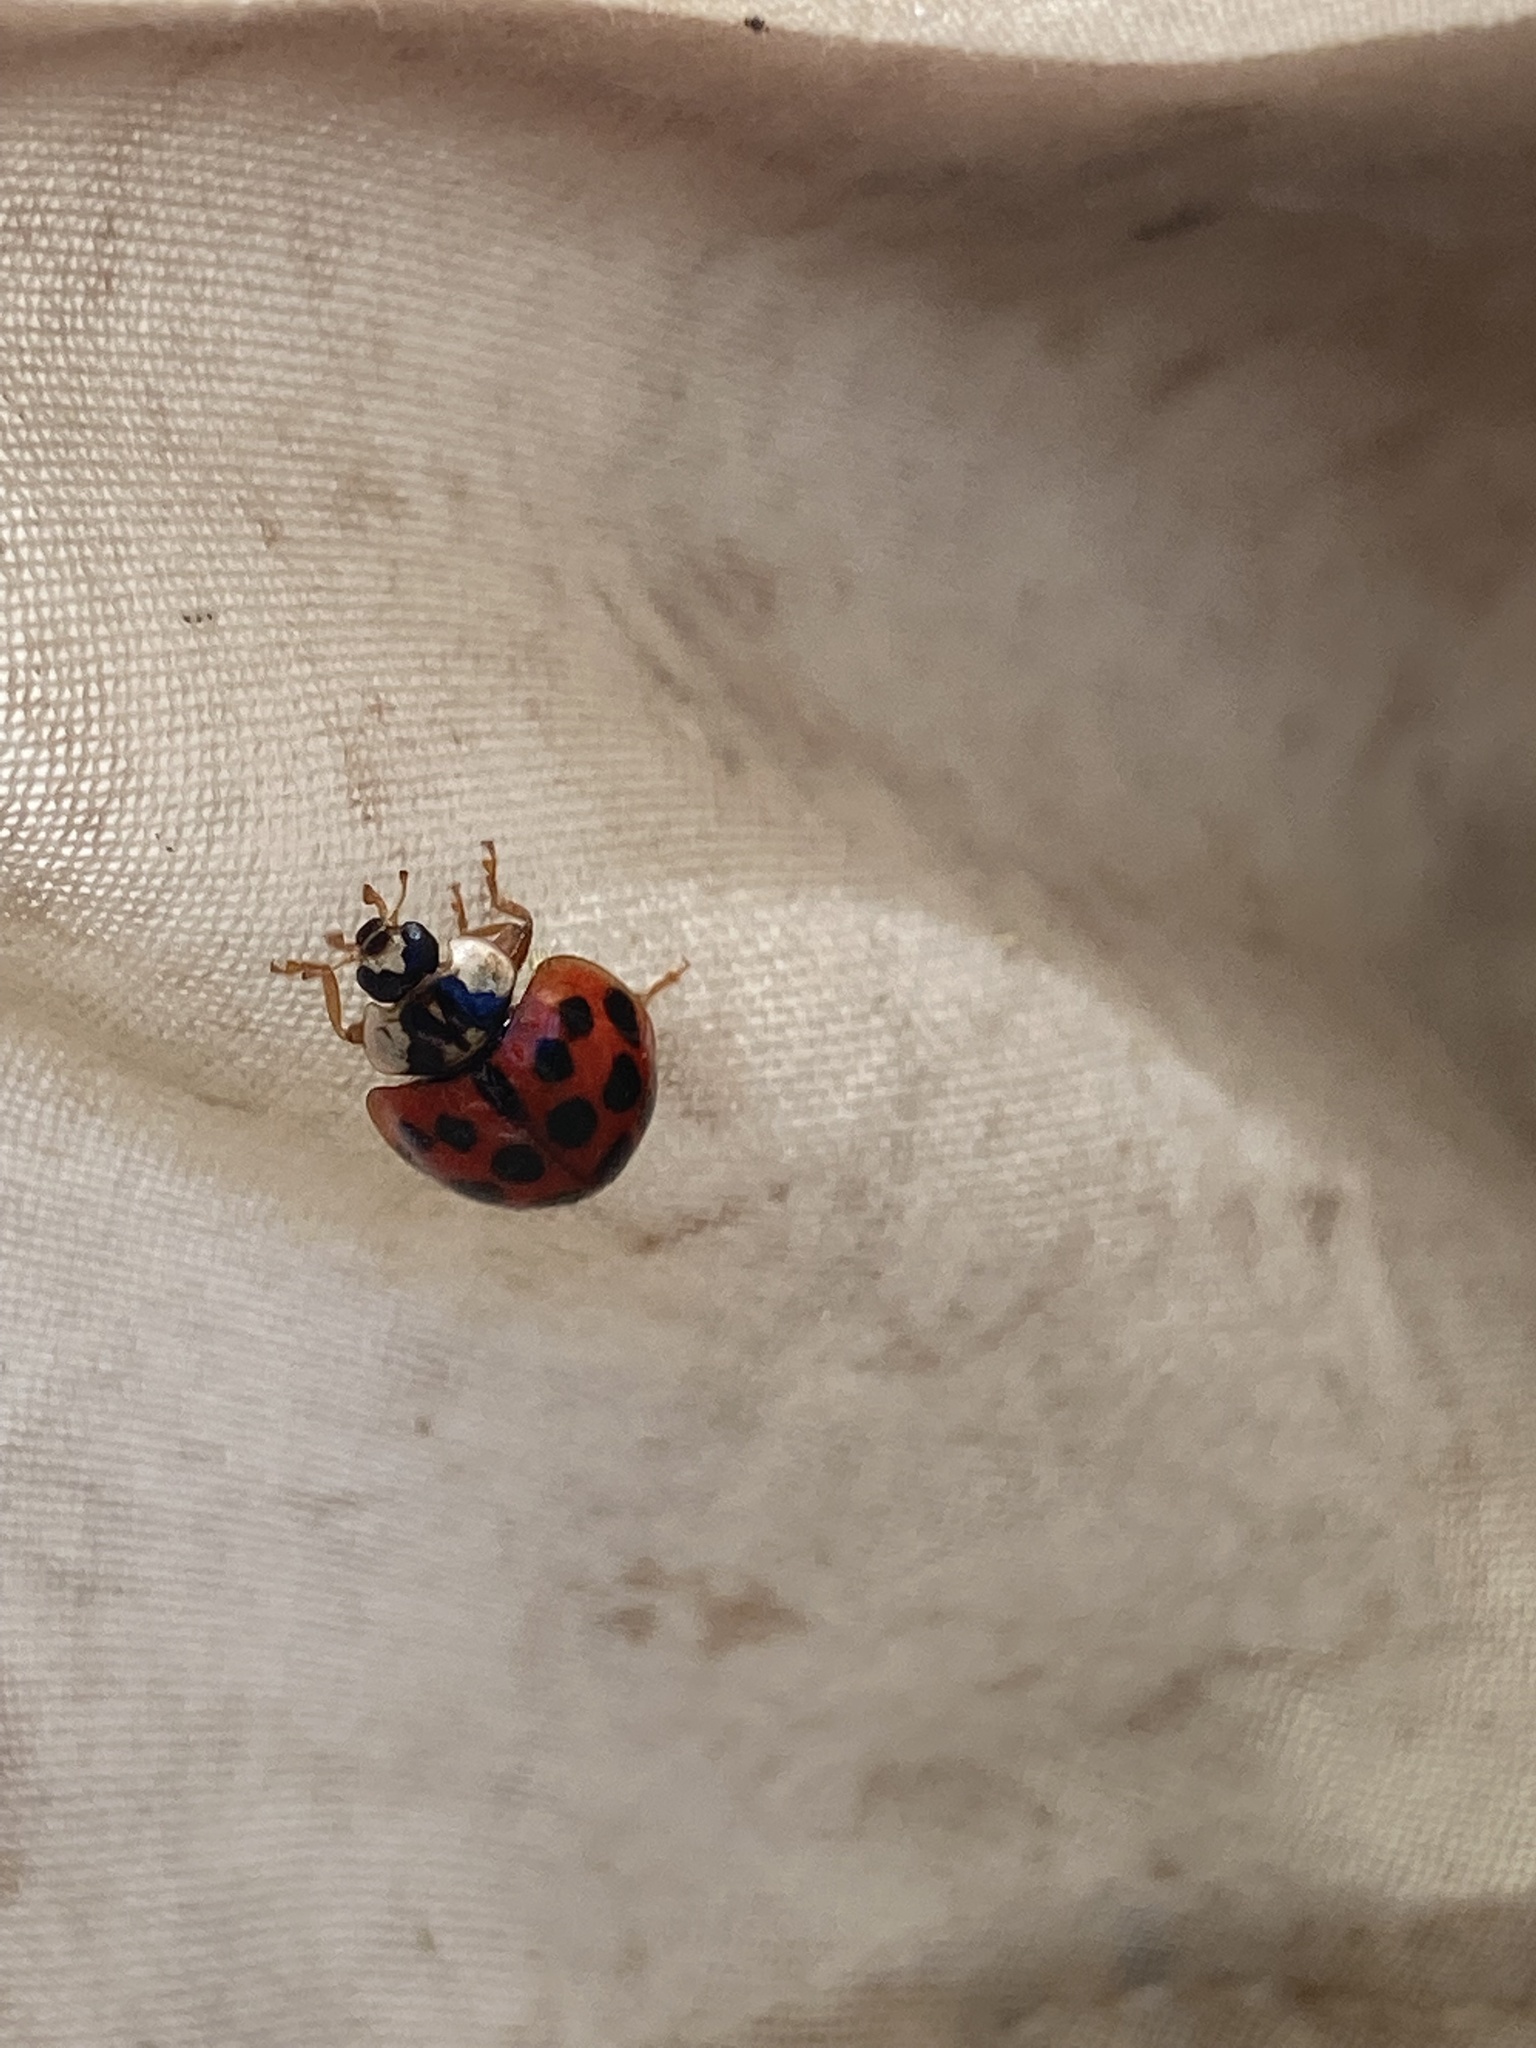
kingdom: Animalia
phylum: Arthropoda
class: Insecta
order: Coleoptera
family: Coccinellidae
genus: Harmonia
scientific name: Harmonia axyridis
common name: Harlequin ladybird
